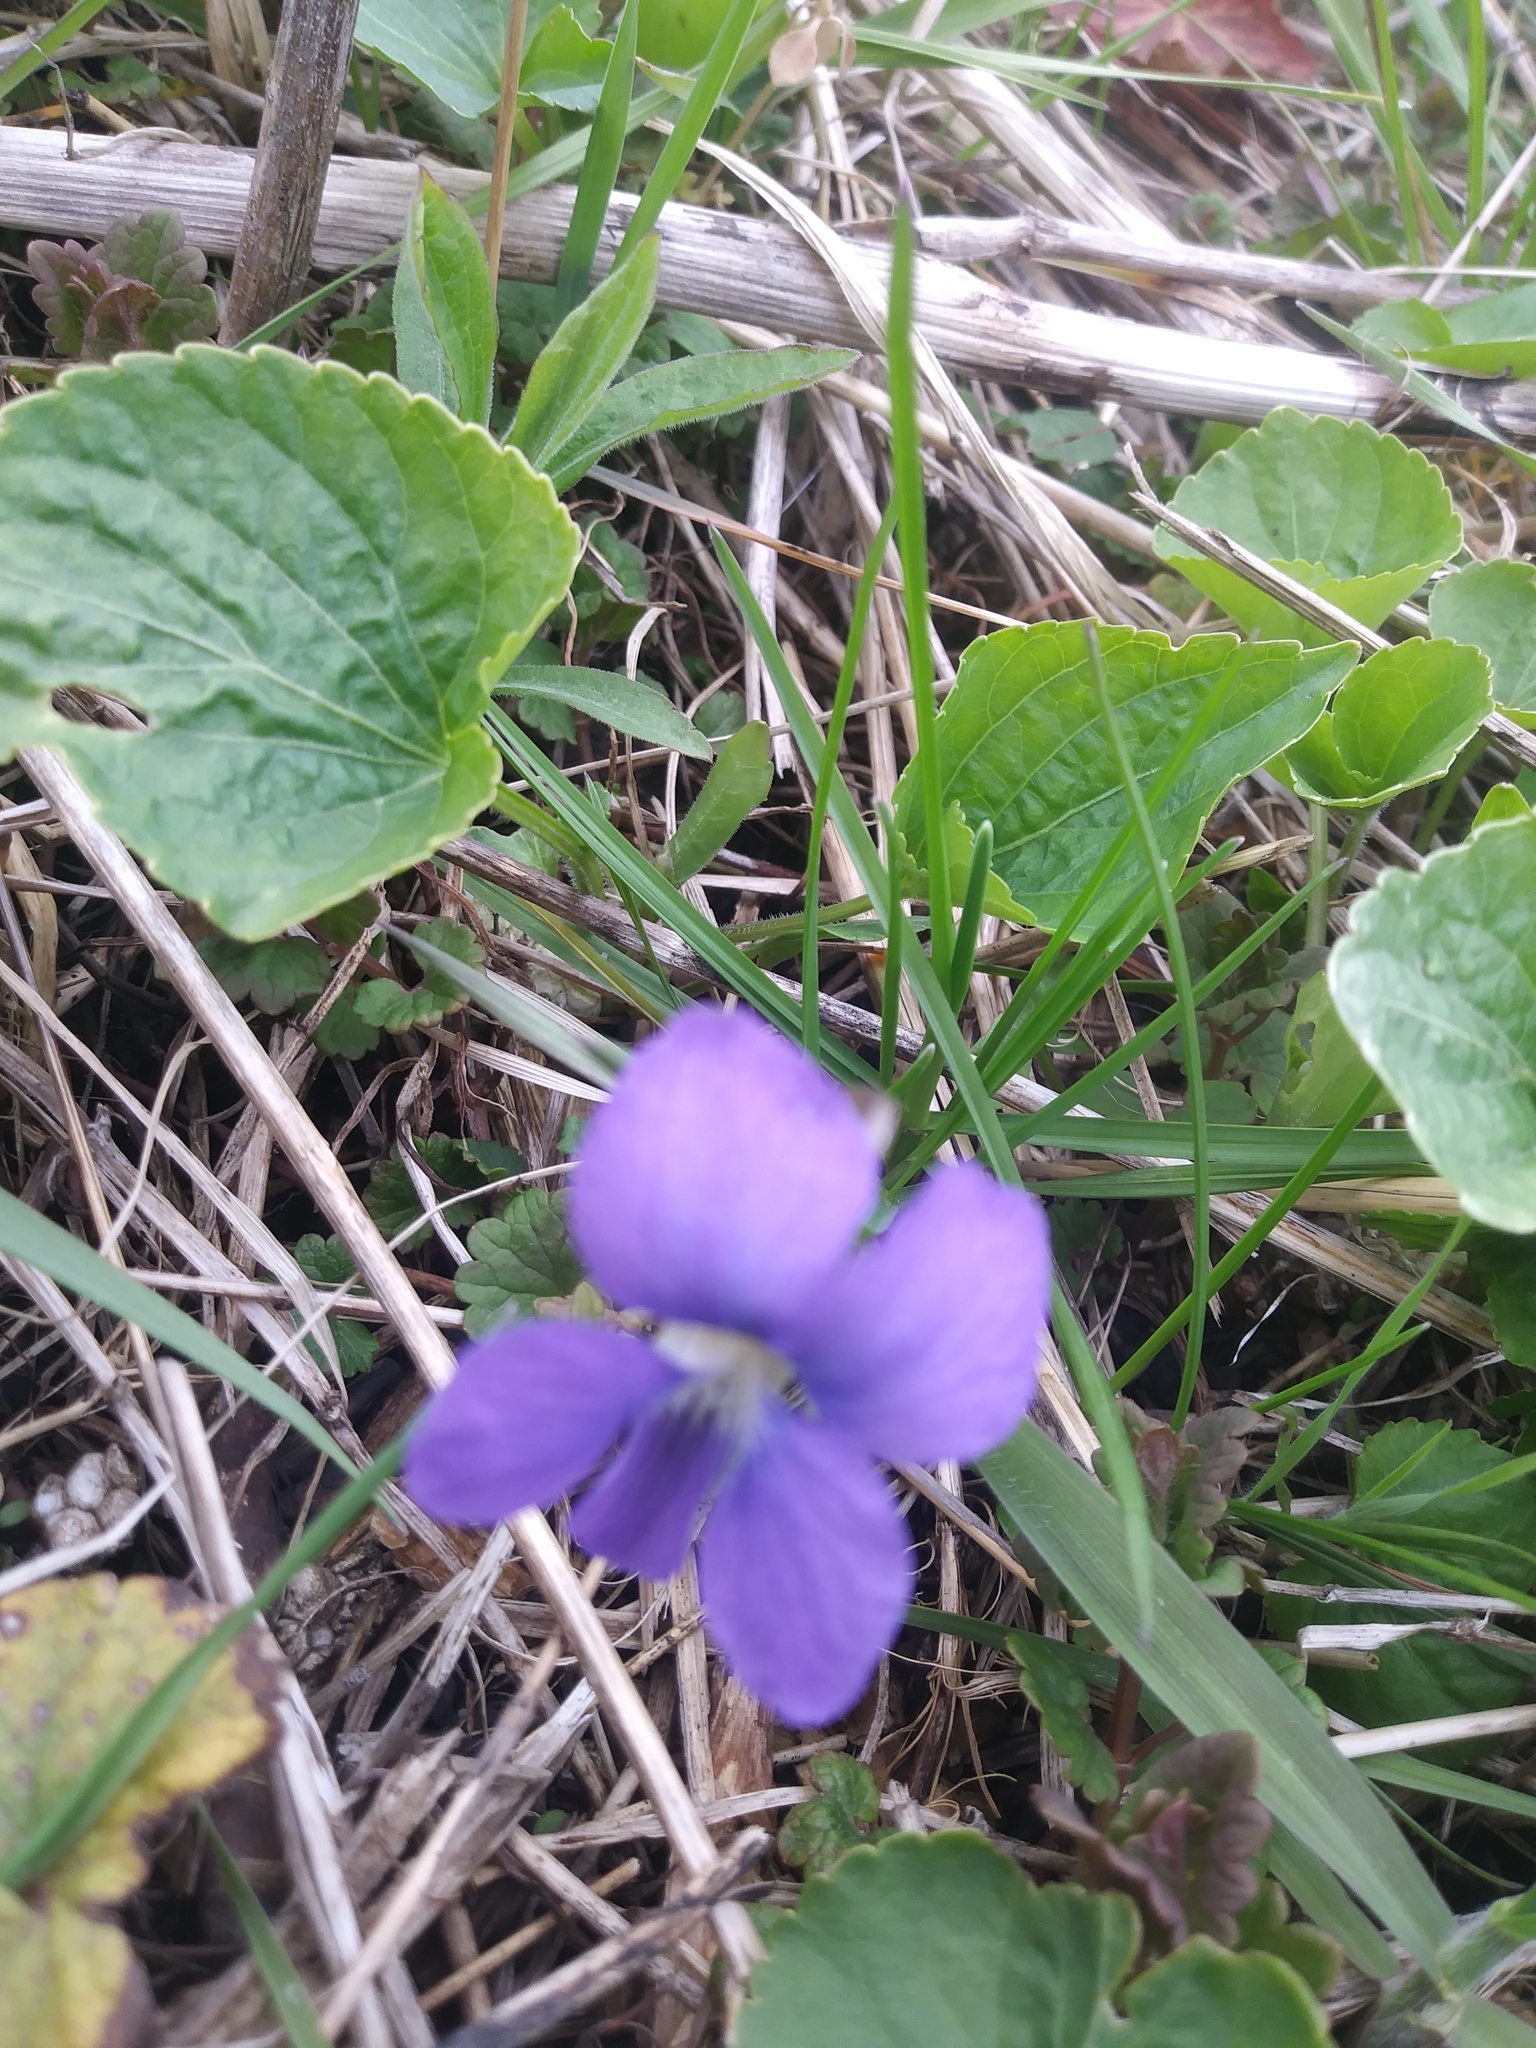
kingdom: Plantae
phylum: Tracheophyta
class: Magnoliopsida
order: Malpighiales
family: Violaceae
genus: Viola
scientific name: Viola sororia
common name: Dooryard violet
